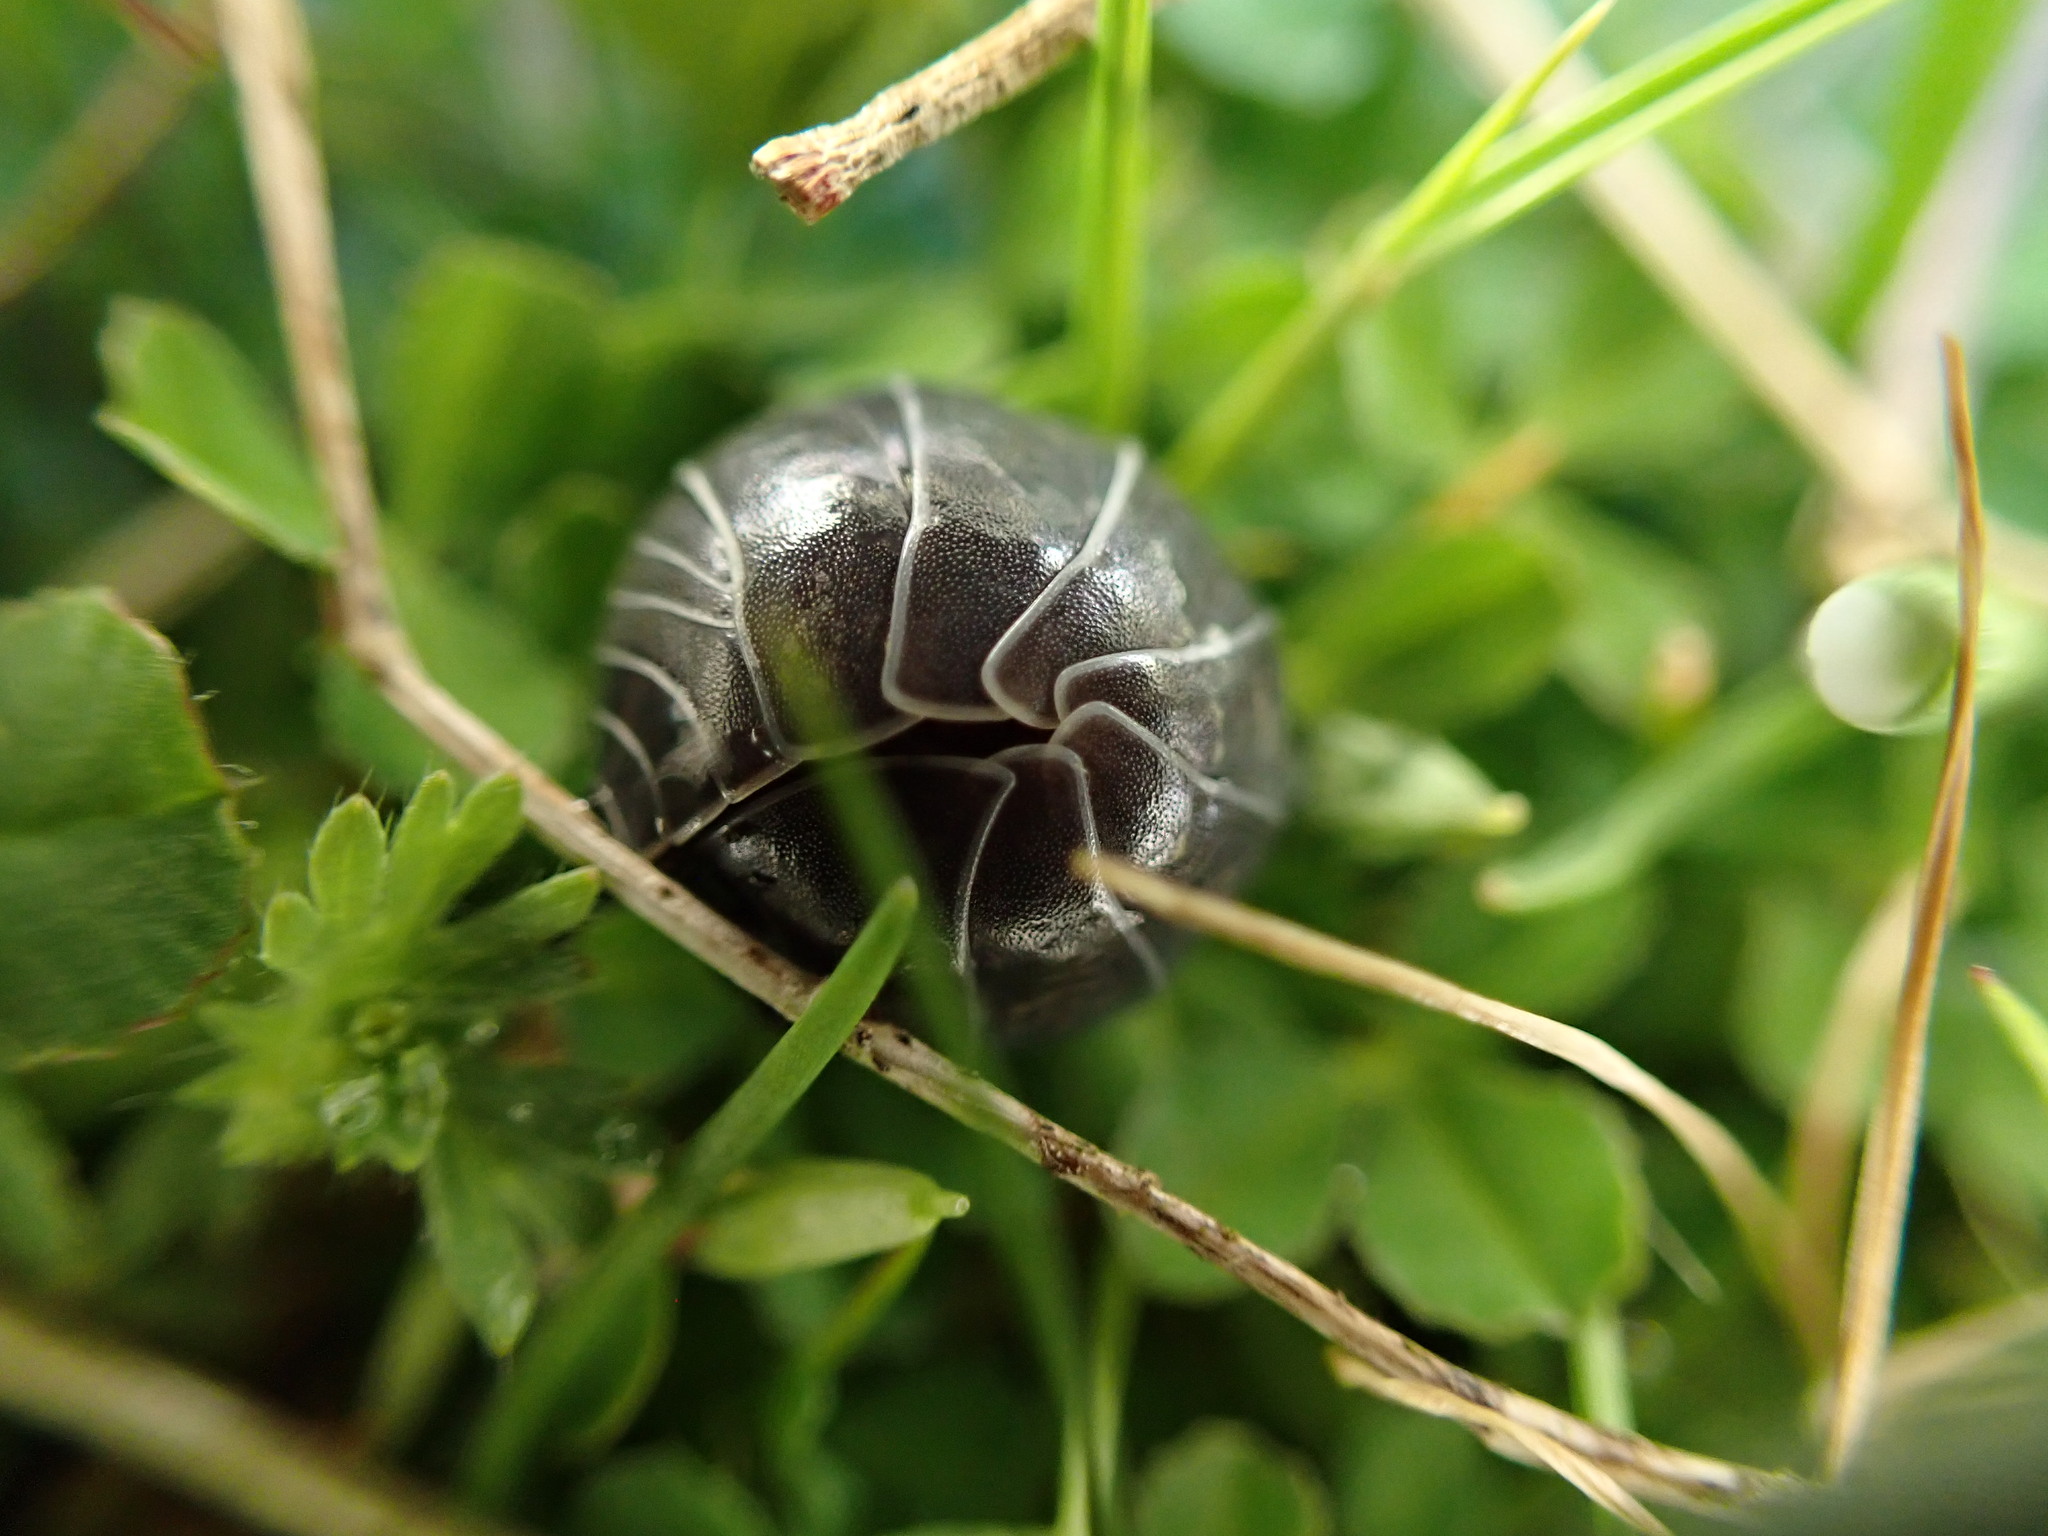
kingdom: Animalia
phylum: Arthropoda
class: Malacostraca
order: Isopoda
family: Armadillidiidae
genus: Armadillidium
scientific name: Armadillidium vulgare
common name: Common pill woodlouse
